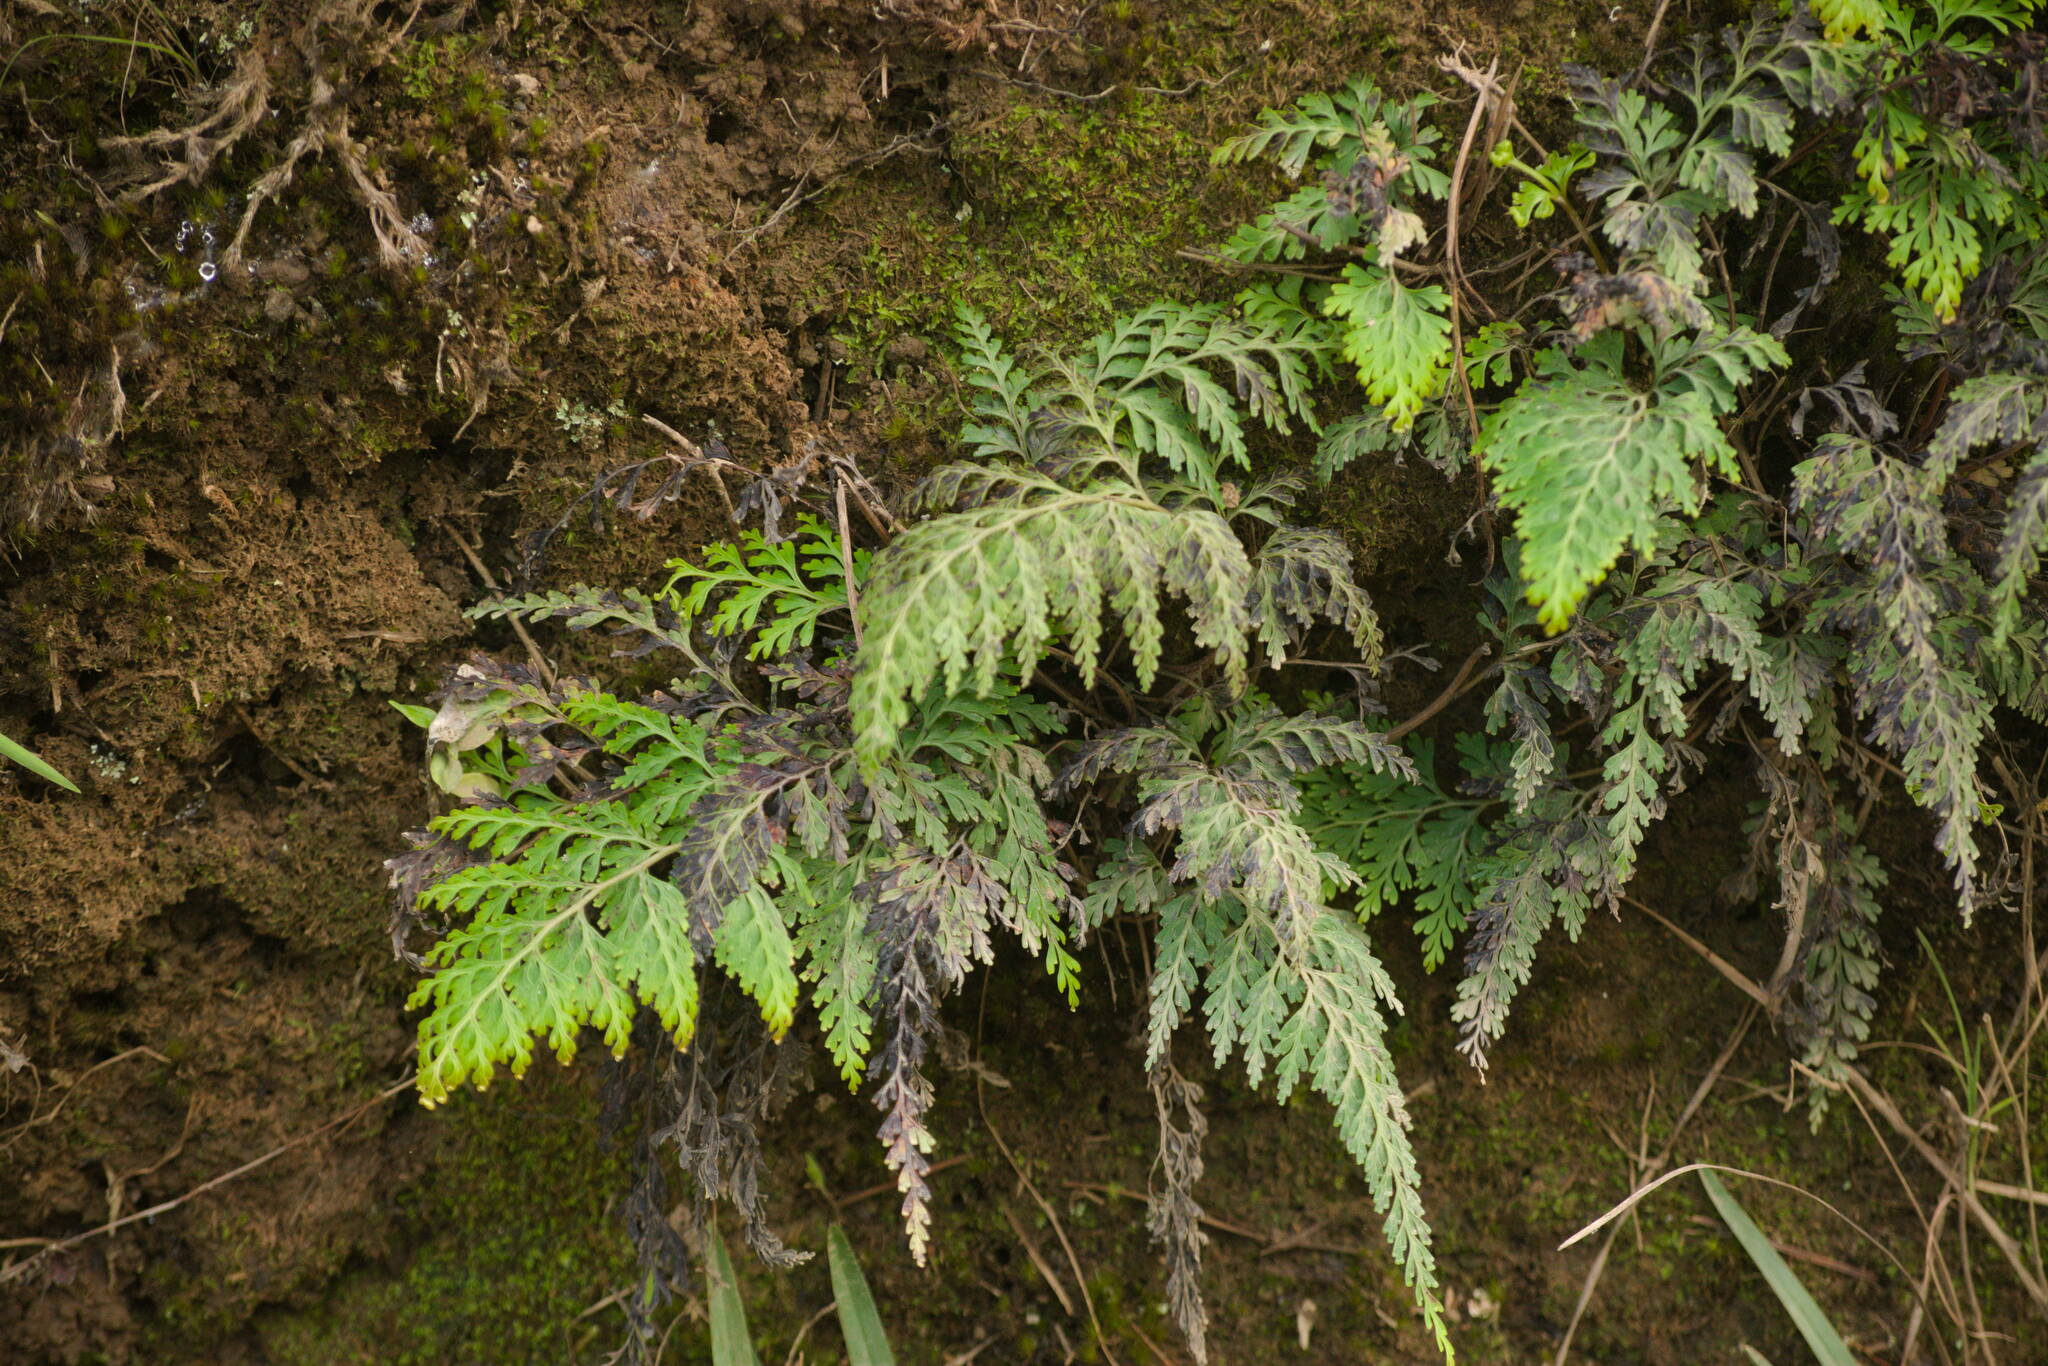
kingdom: Plantae
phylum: Tracheophyta
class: Polypodiopsida
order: Polypodiales
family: Lindsaeaceae
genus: Odontosoria
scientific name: Odontosoria chinensis
